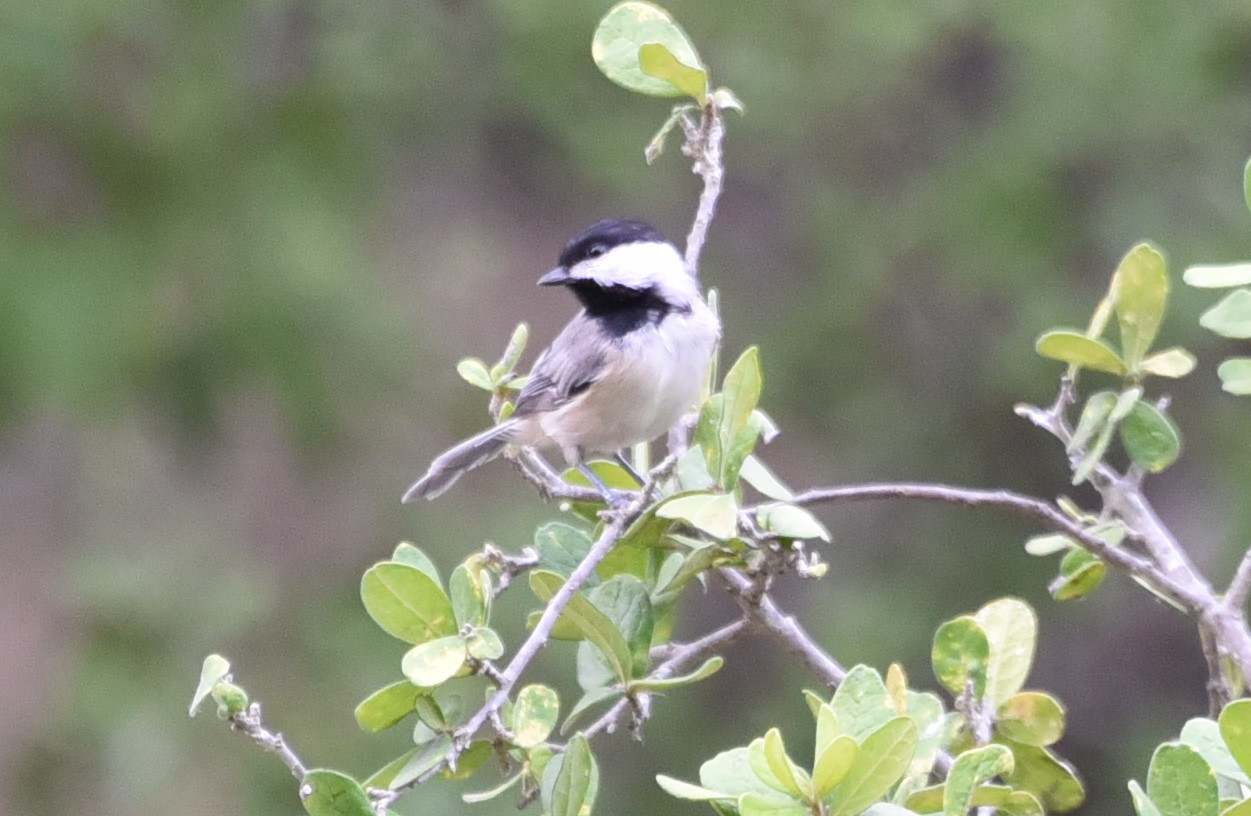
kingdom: Animalia
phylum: Chordata
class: Aves
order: Passeriformes
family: Paridae
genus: Poecile
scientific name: Poecile carolinensis
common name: Carolina chickadee
